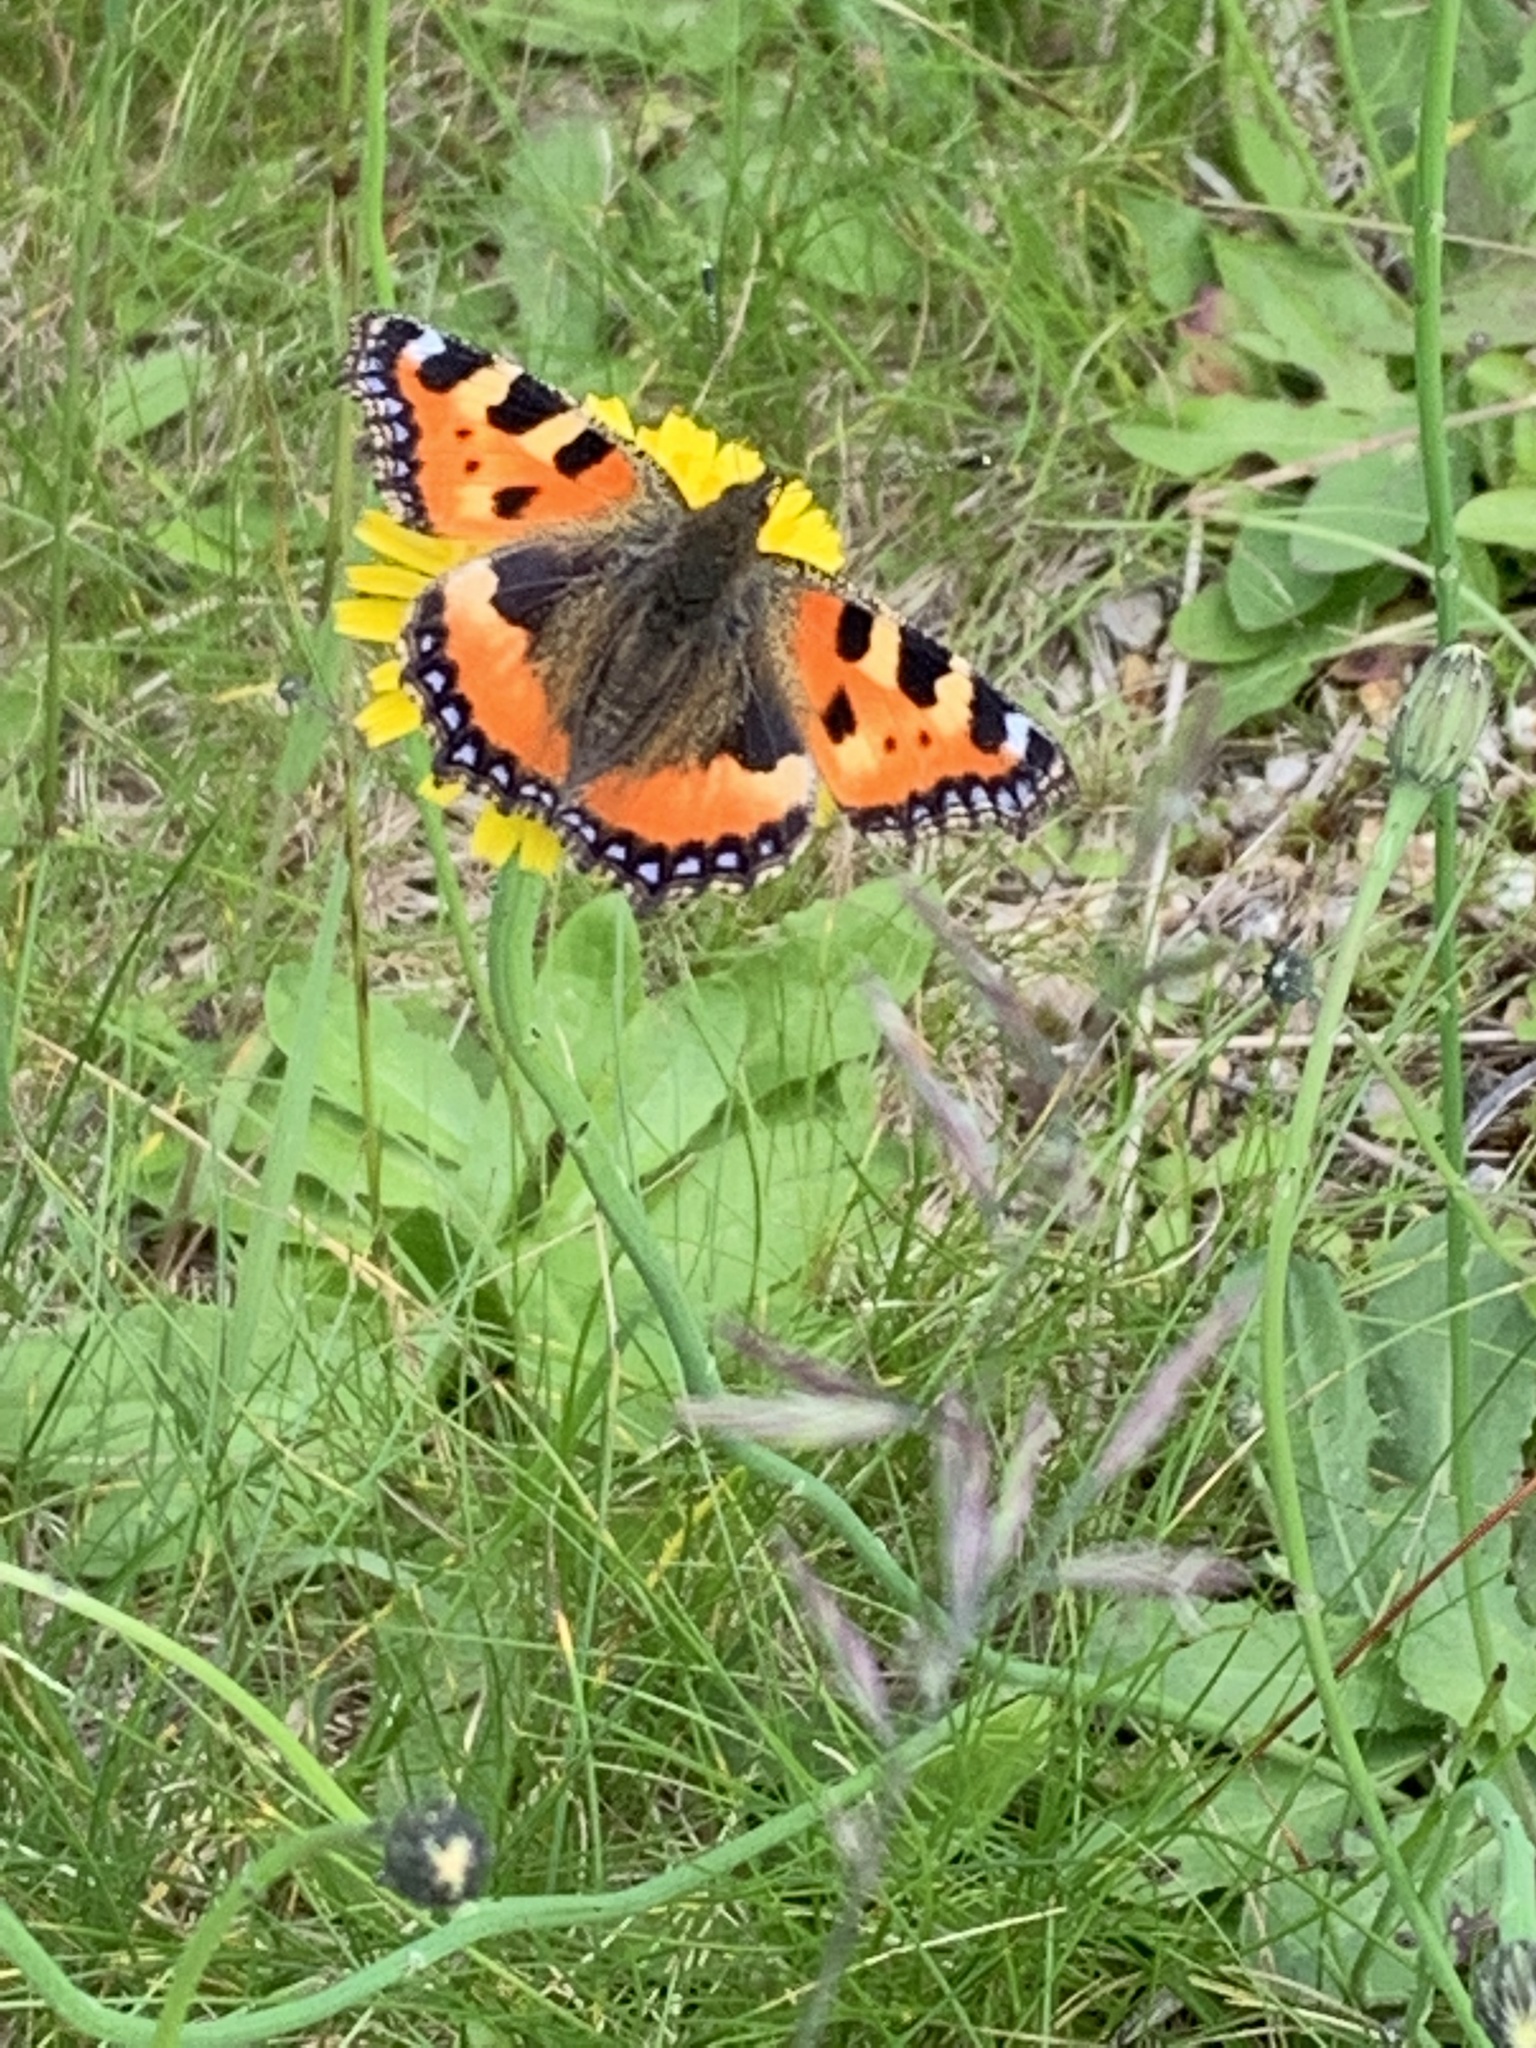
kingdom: Animalia
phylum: Arthropoda
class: Insecta
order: Lepidoptera
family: Nymphalidae
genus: Aglais
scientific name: Aglais urticae
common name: Small tortoiseshell
